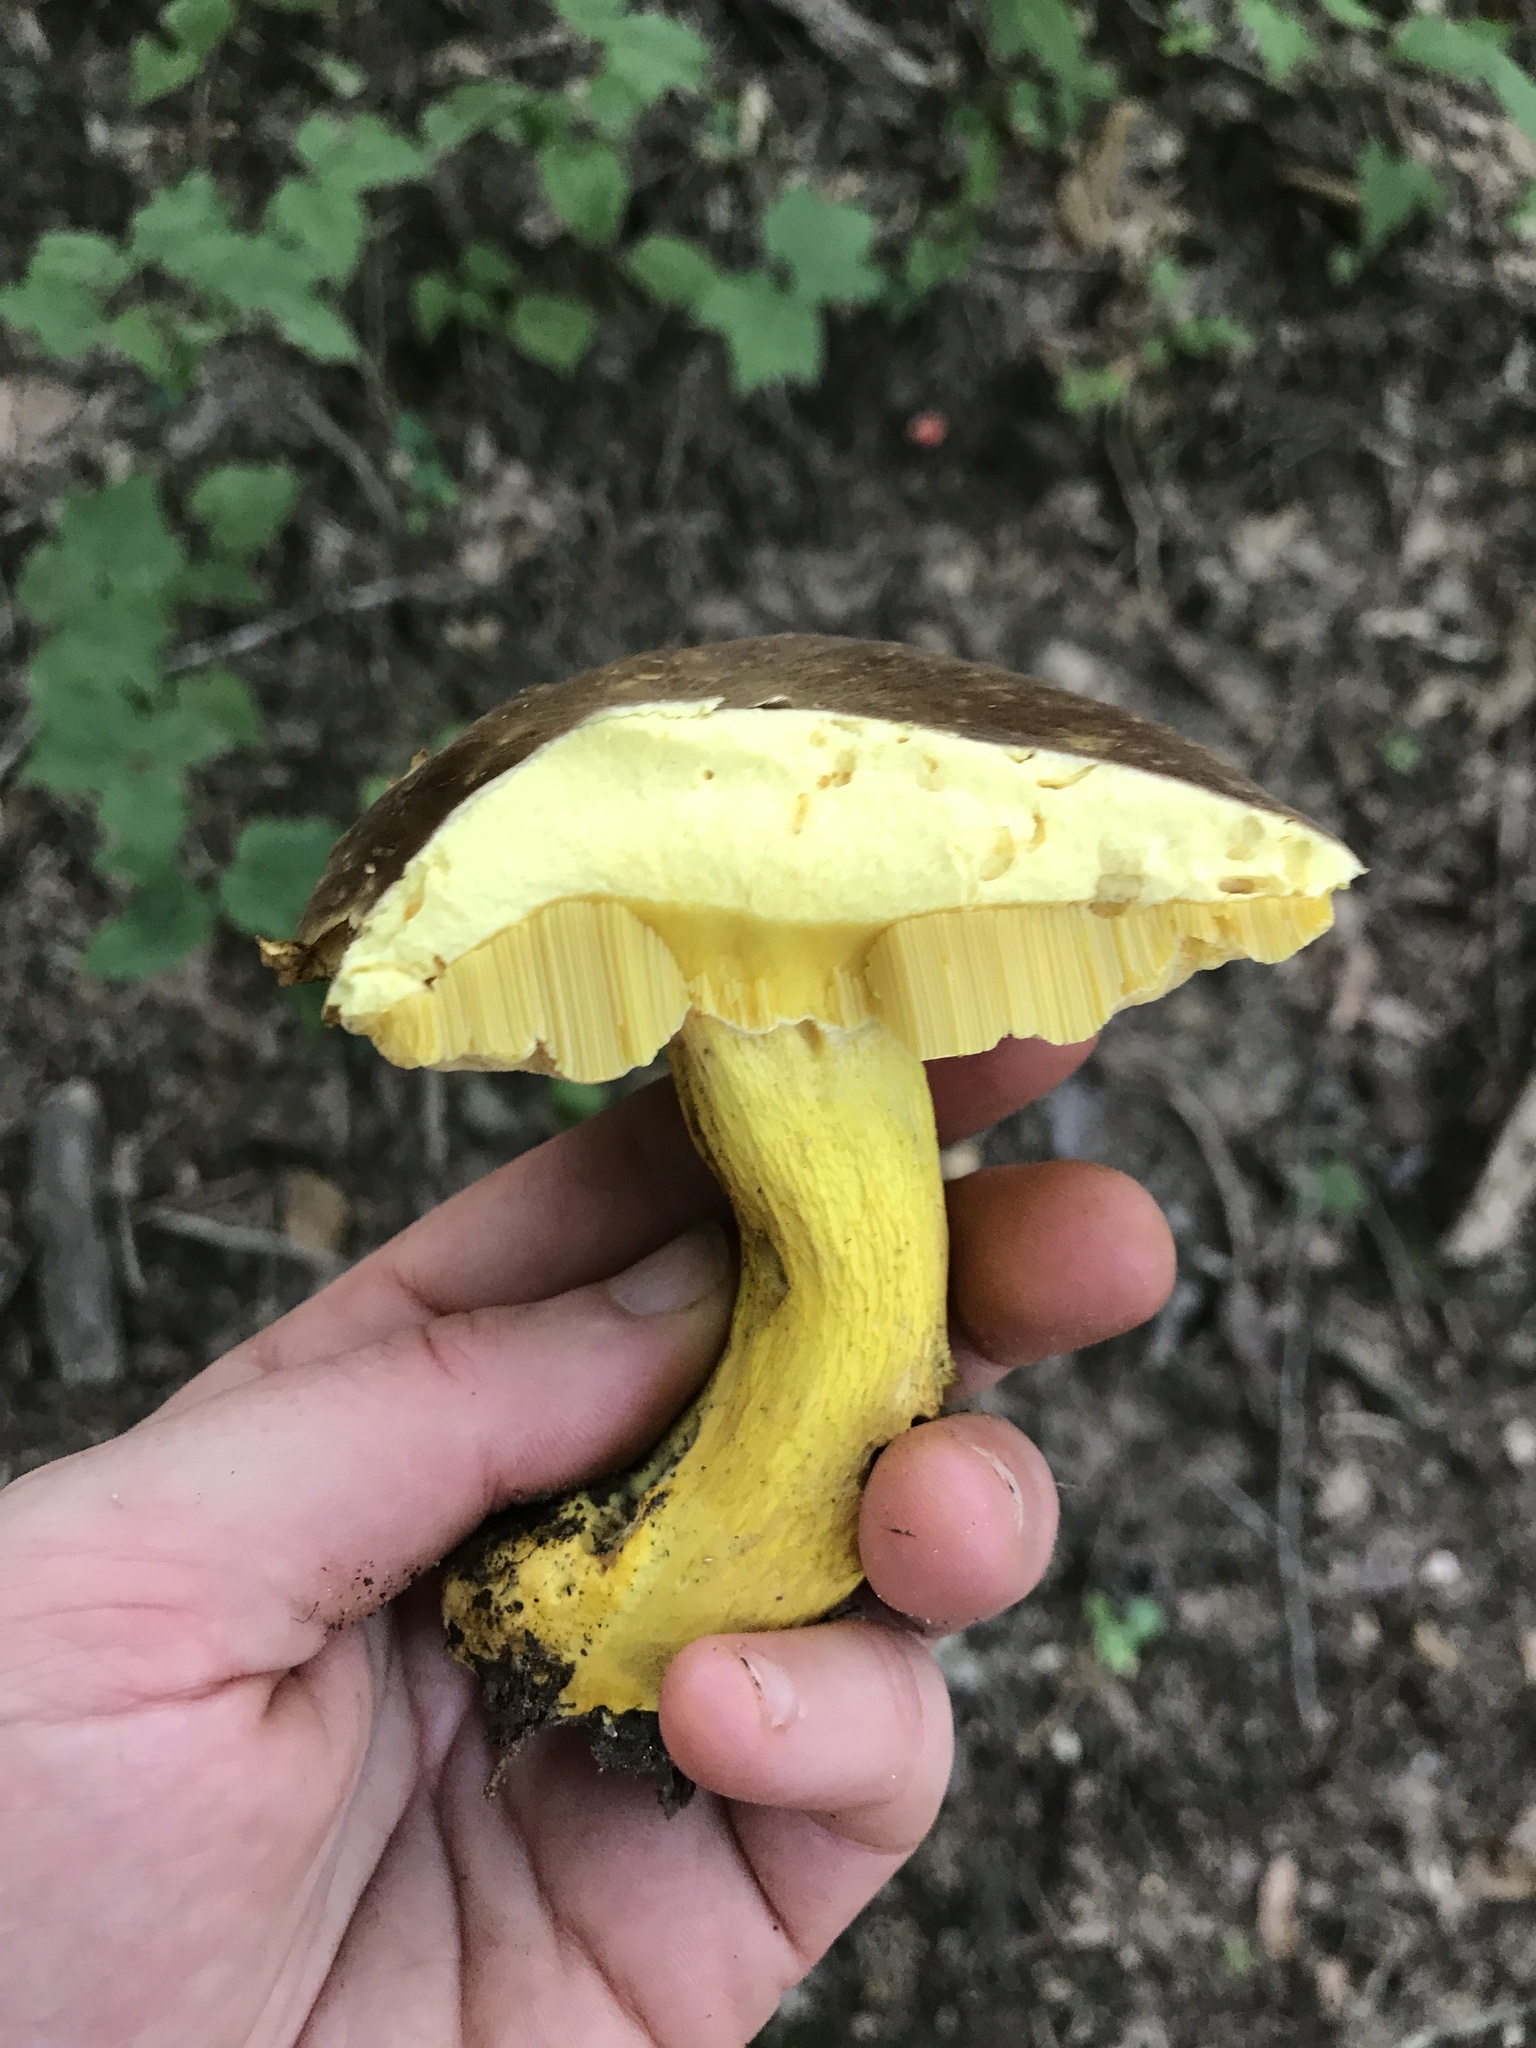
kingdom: Fungi
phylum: Basidiomycota
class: Agaricomycetes
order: Boletales
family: Boletaceae
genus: Boletus
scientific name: Boletus auripes
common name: Butter-foot bolete
